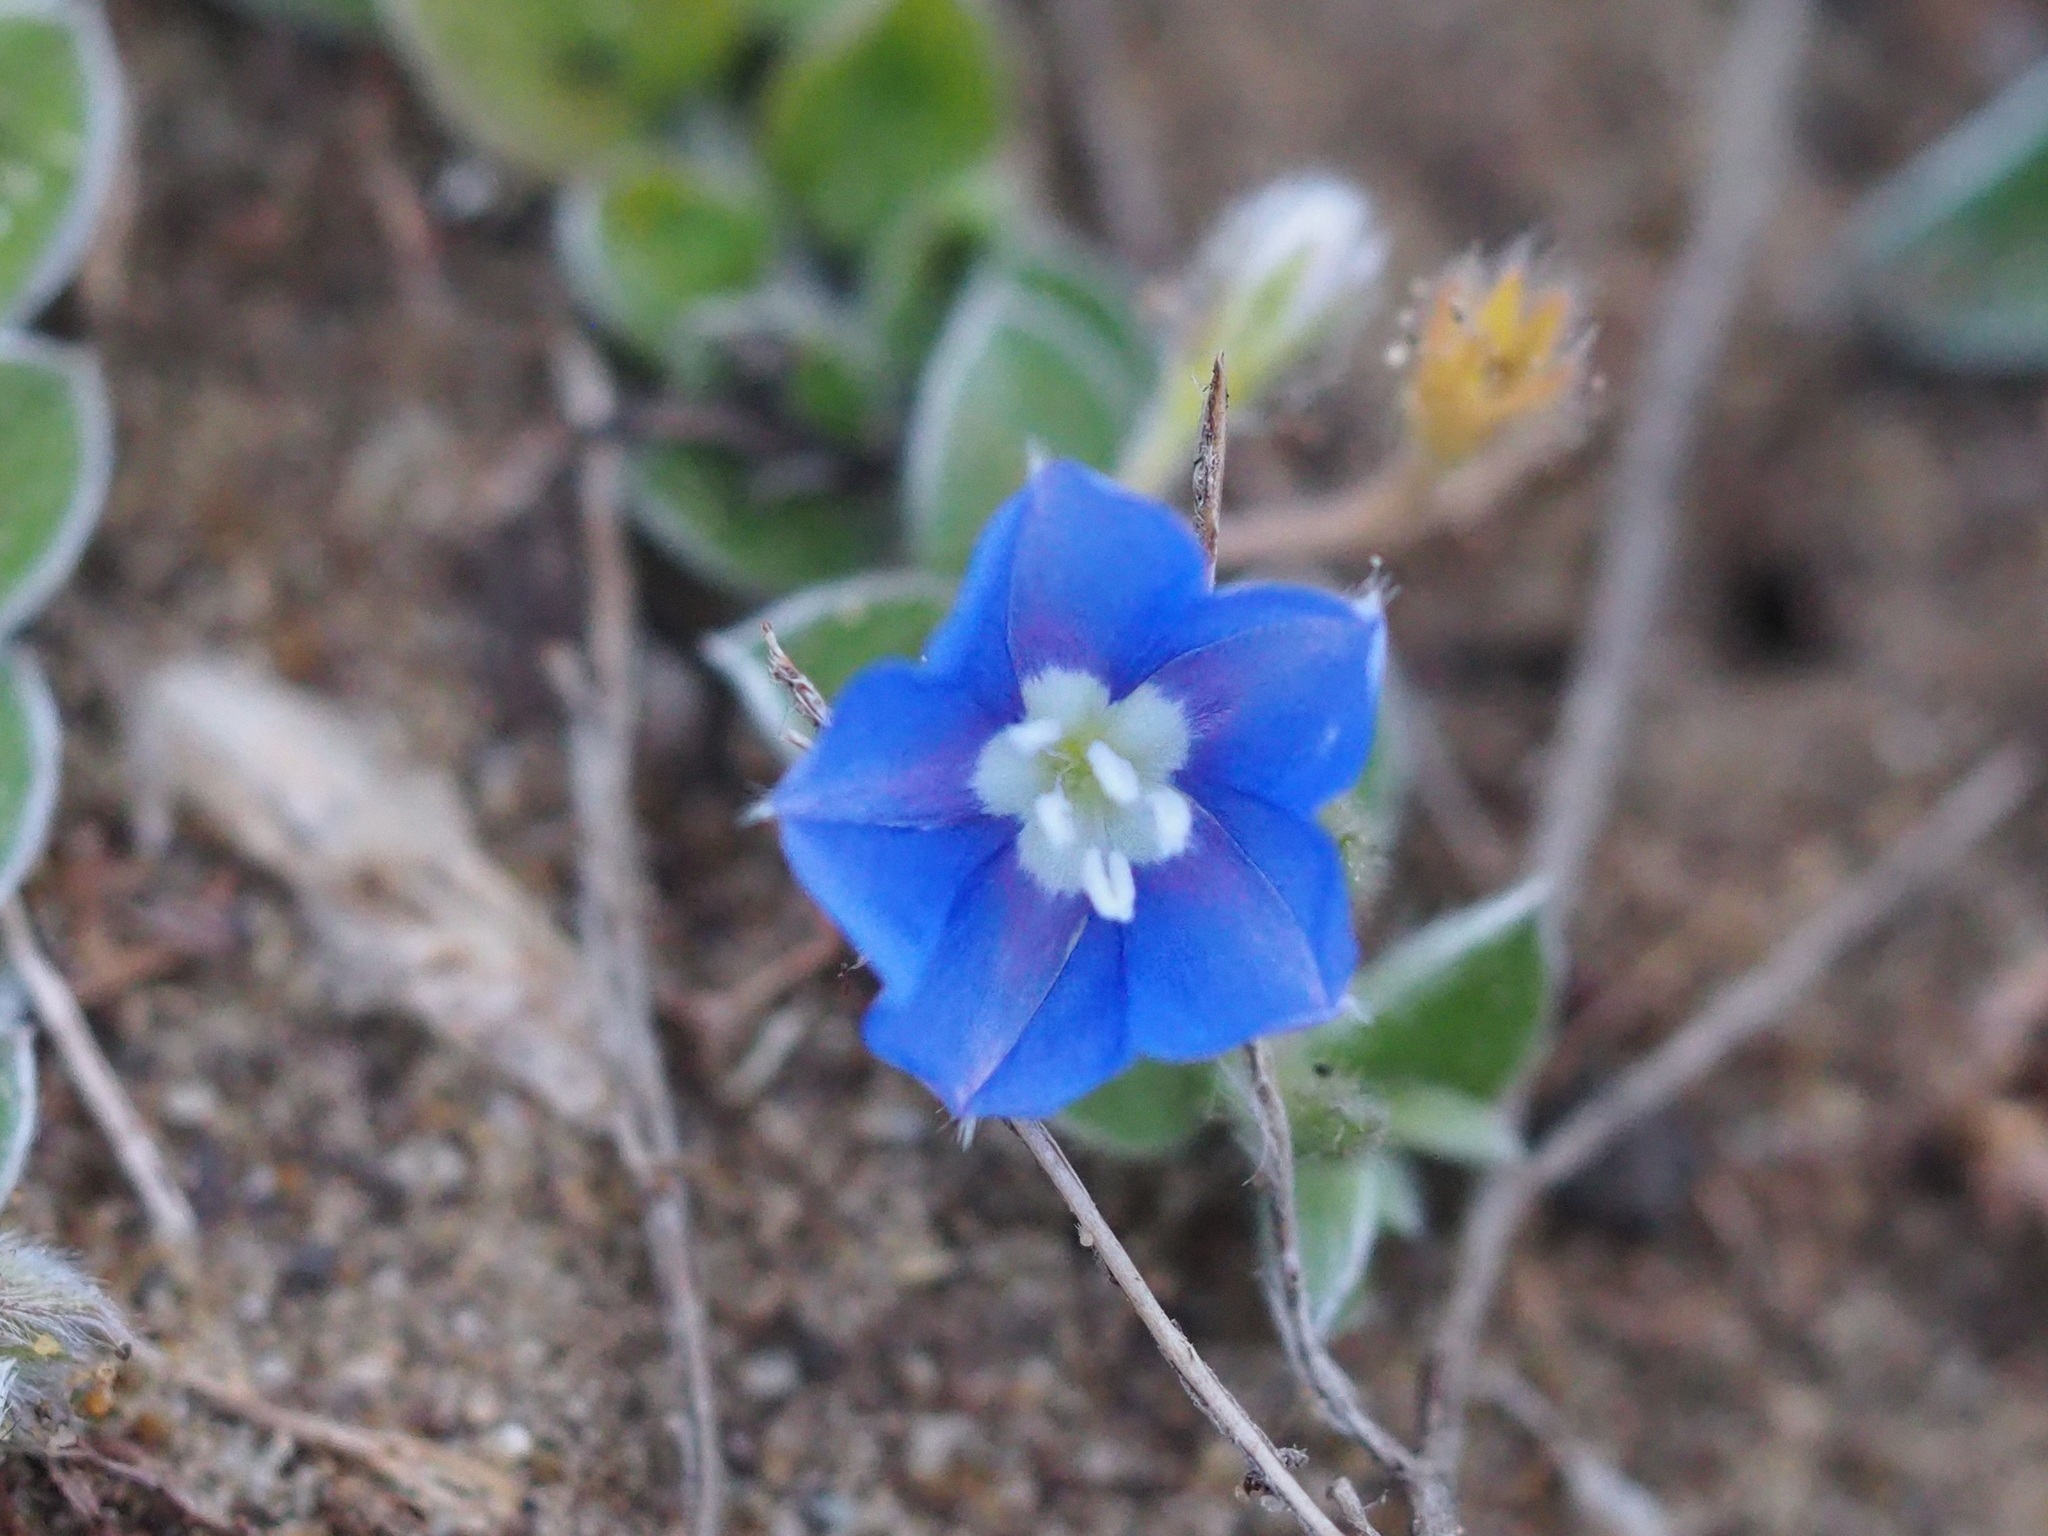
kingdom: Plantae
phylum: Tracheophyta
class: Magnoliopsida
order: Solanales
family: Convolvulaceae
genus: Evolvulus
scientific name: Evolvulus alsinoides
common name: Slender dwarf morning-glory
